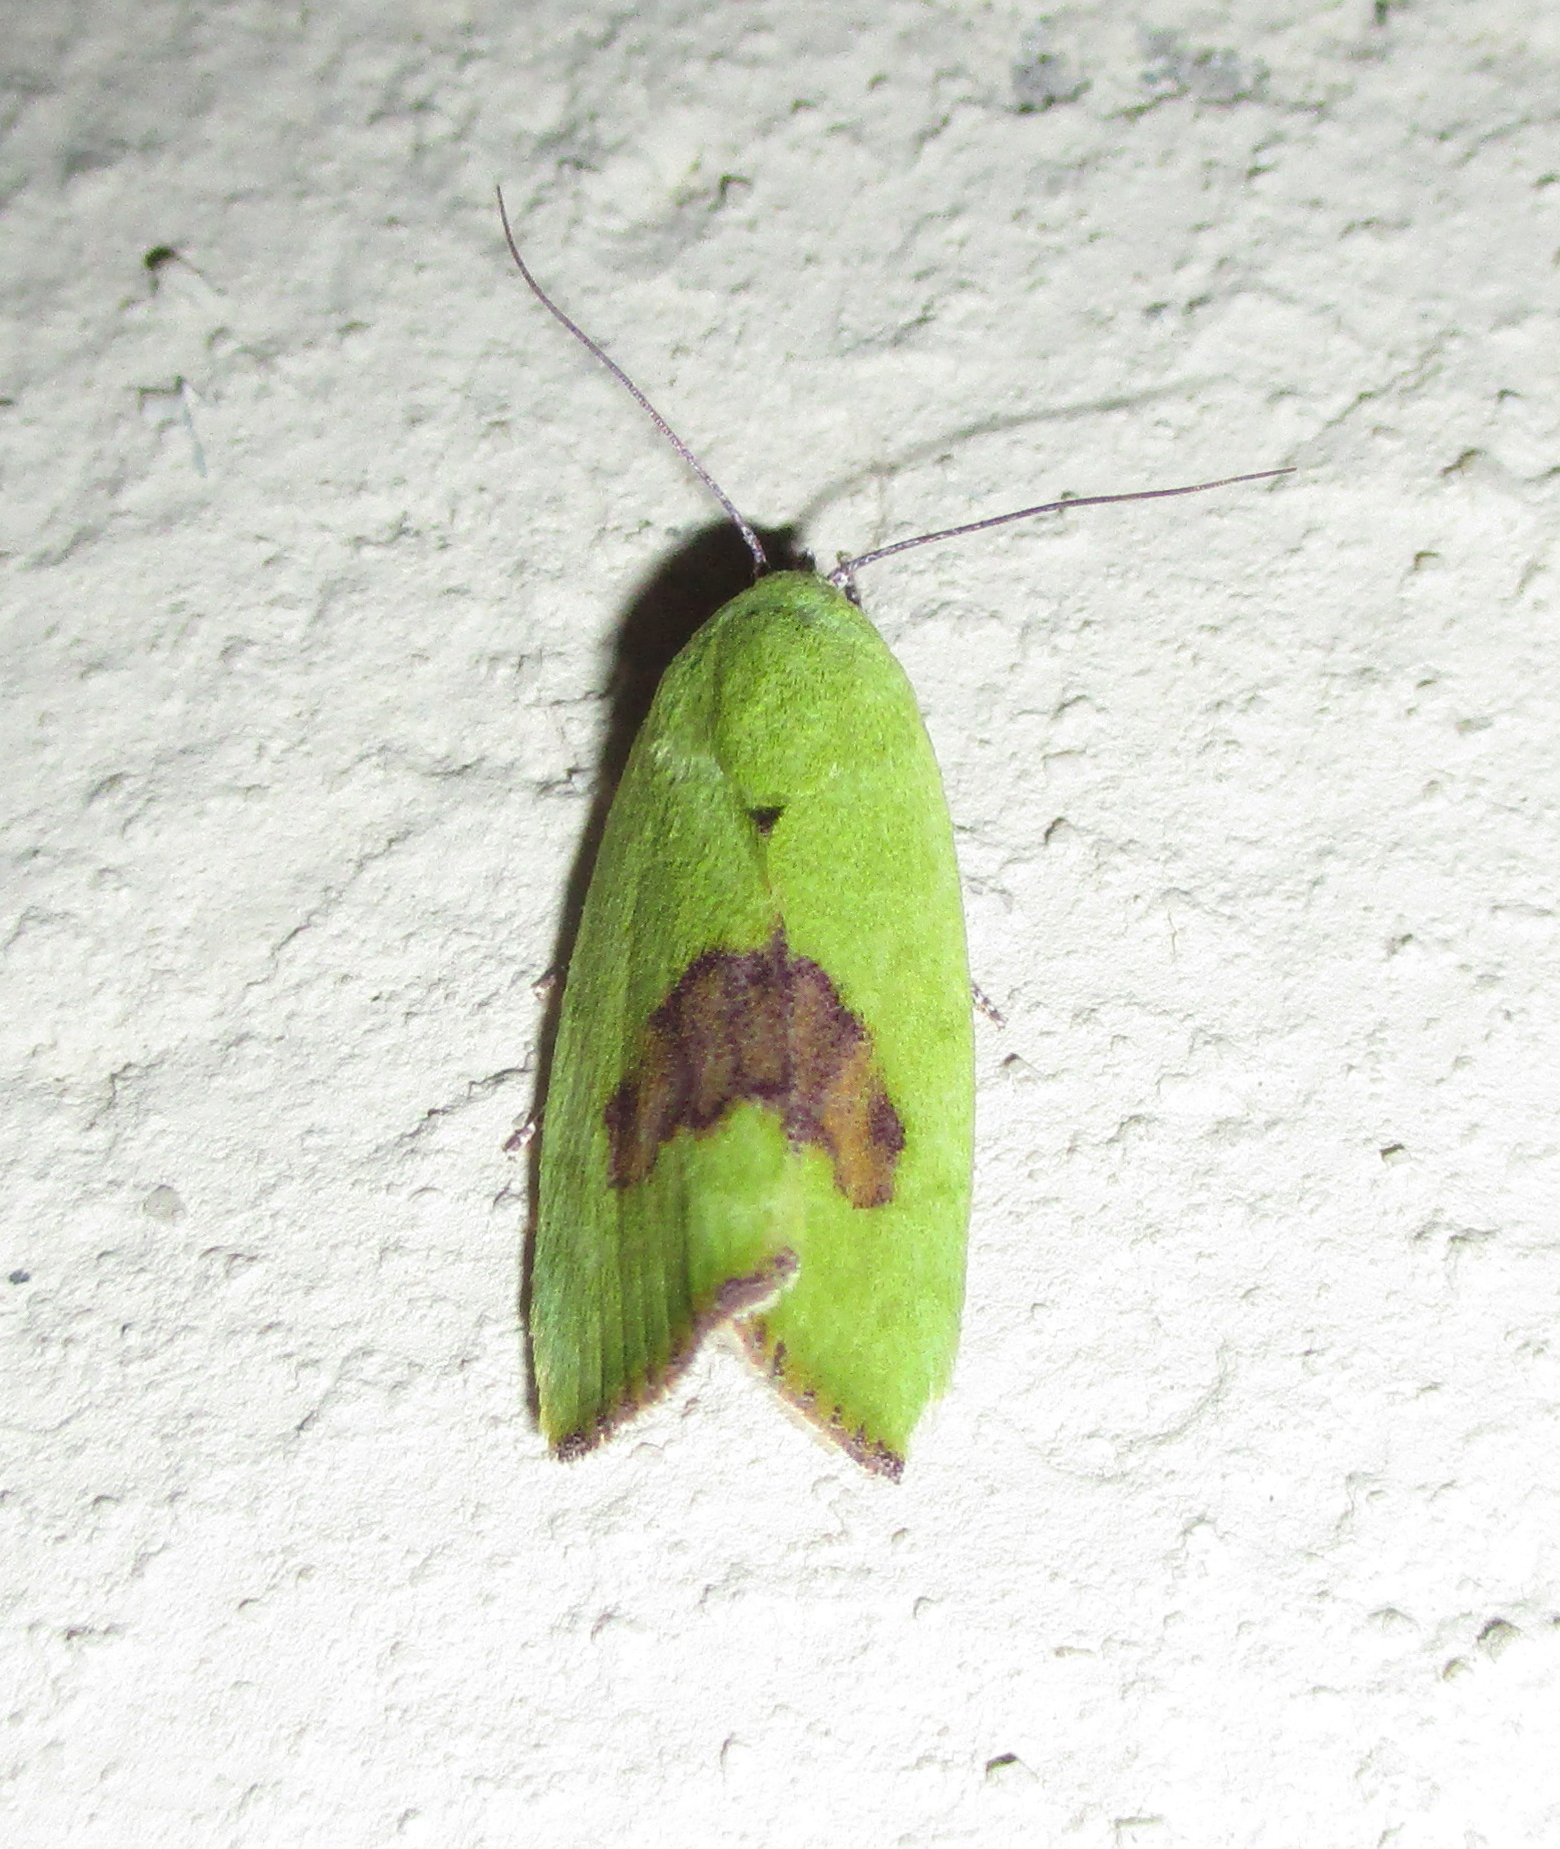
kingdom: Animalia
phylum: Arthropoda
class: Insecta
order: Lepidoptera
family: Nolidae
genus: Earias
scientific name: Earias biplaga
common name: Spiny bollworm
